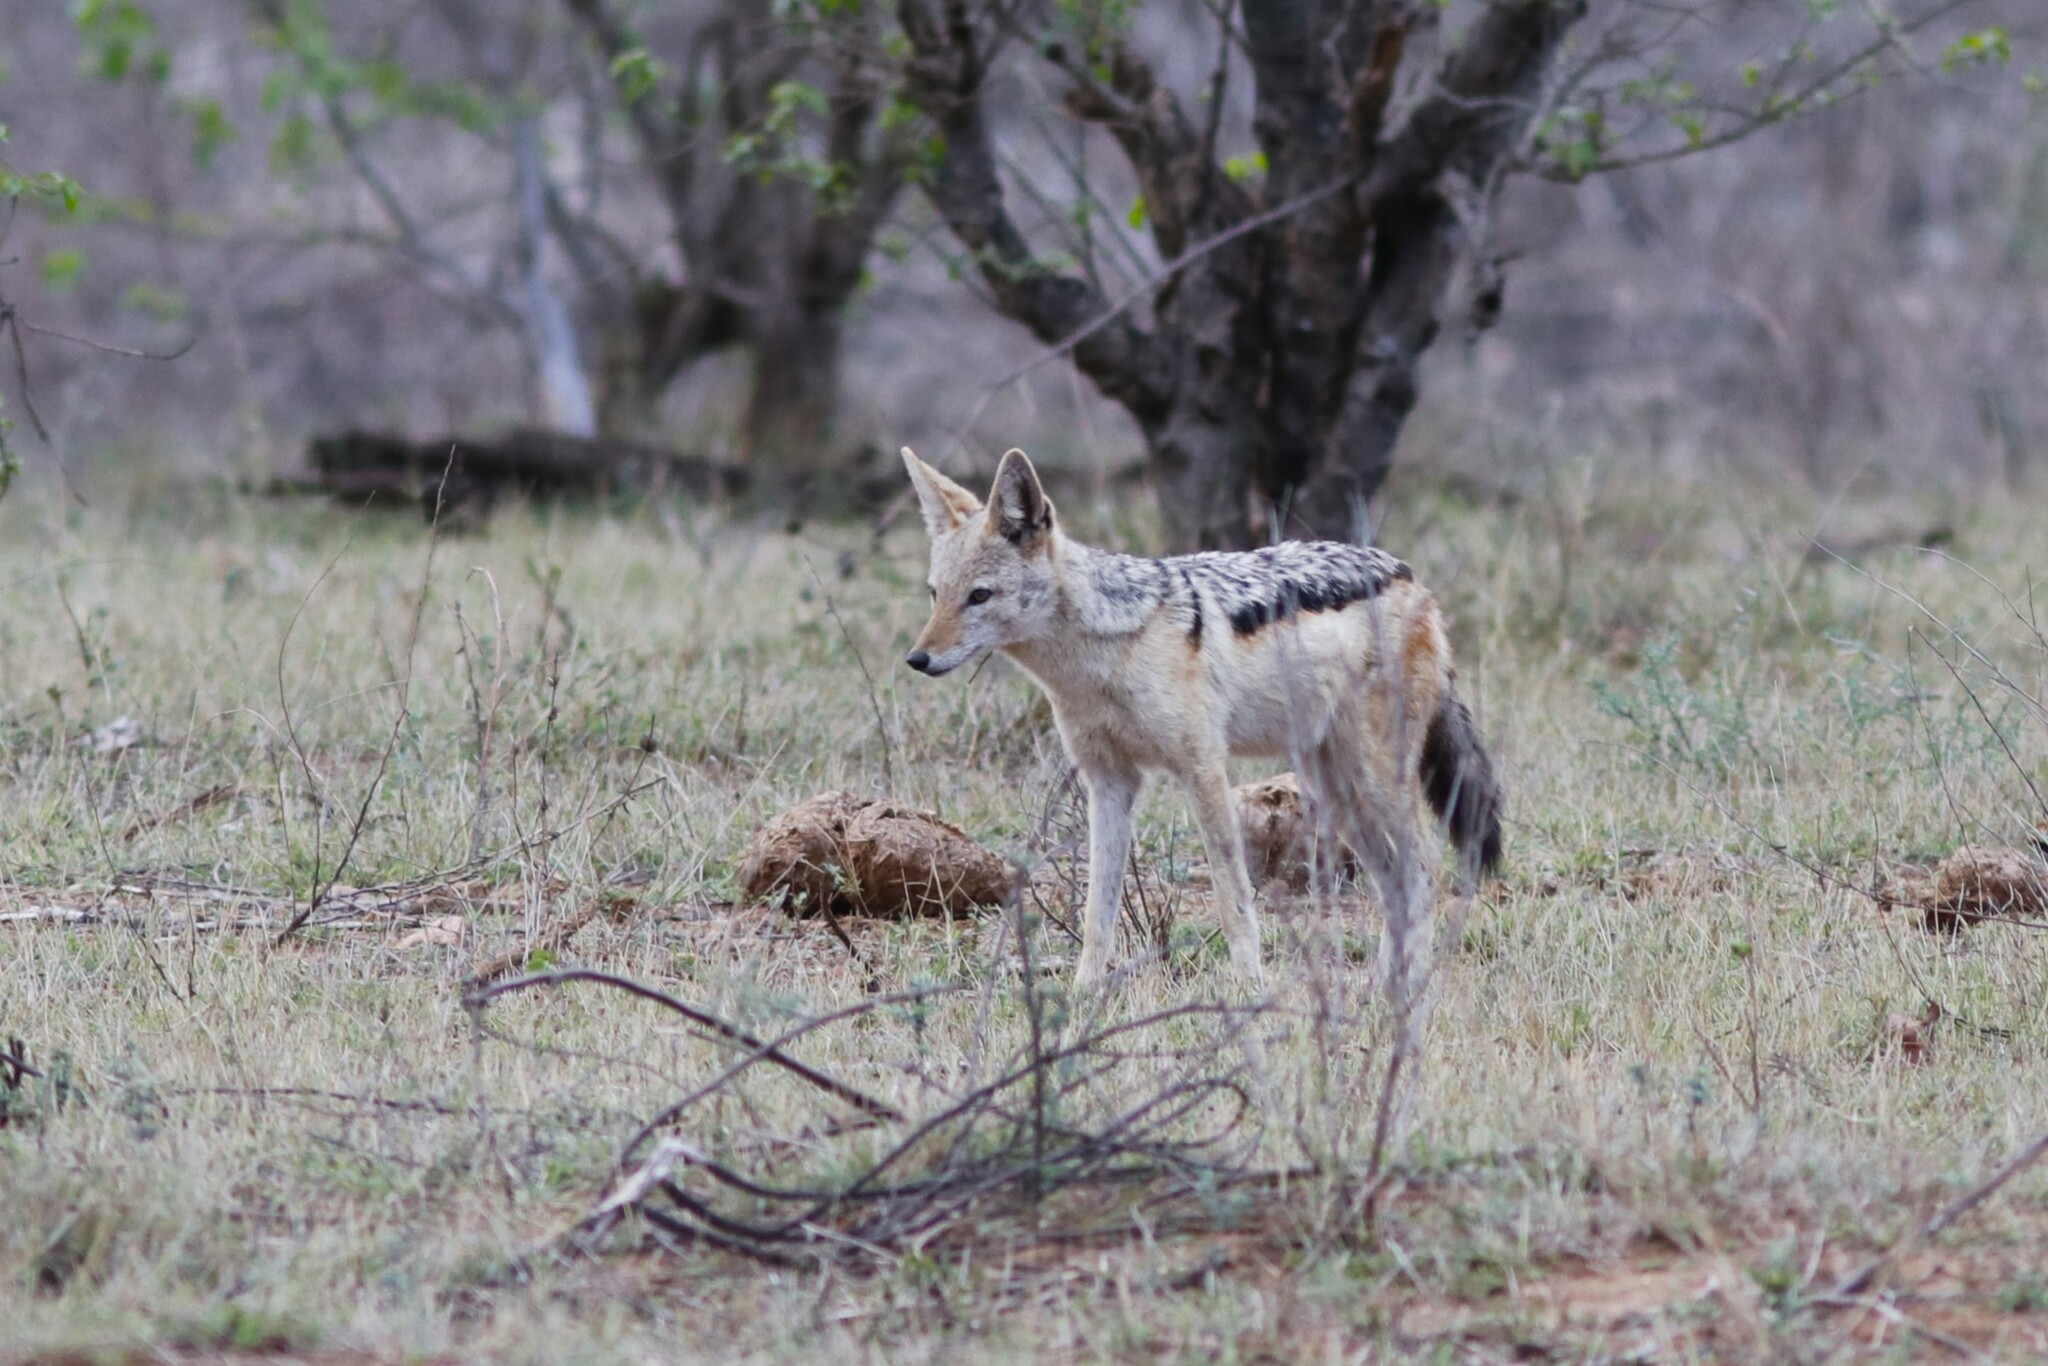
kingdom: Animalia
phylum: Chordata
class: Mammalia
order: Carnivora
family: Canidae
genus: Lupulella
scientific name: Lupulella
